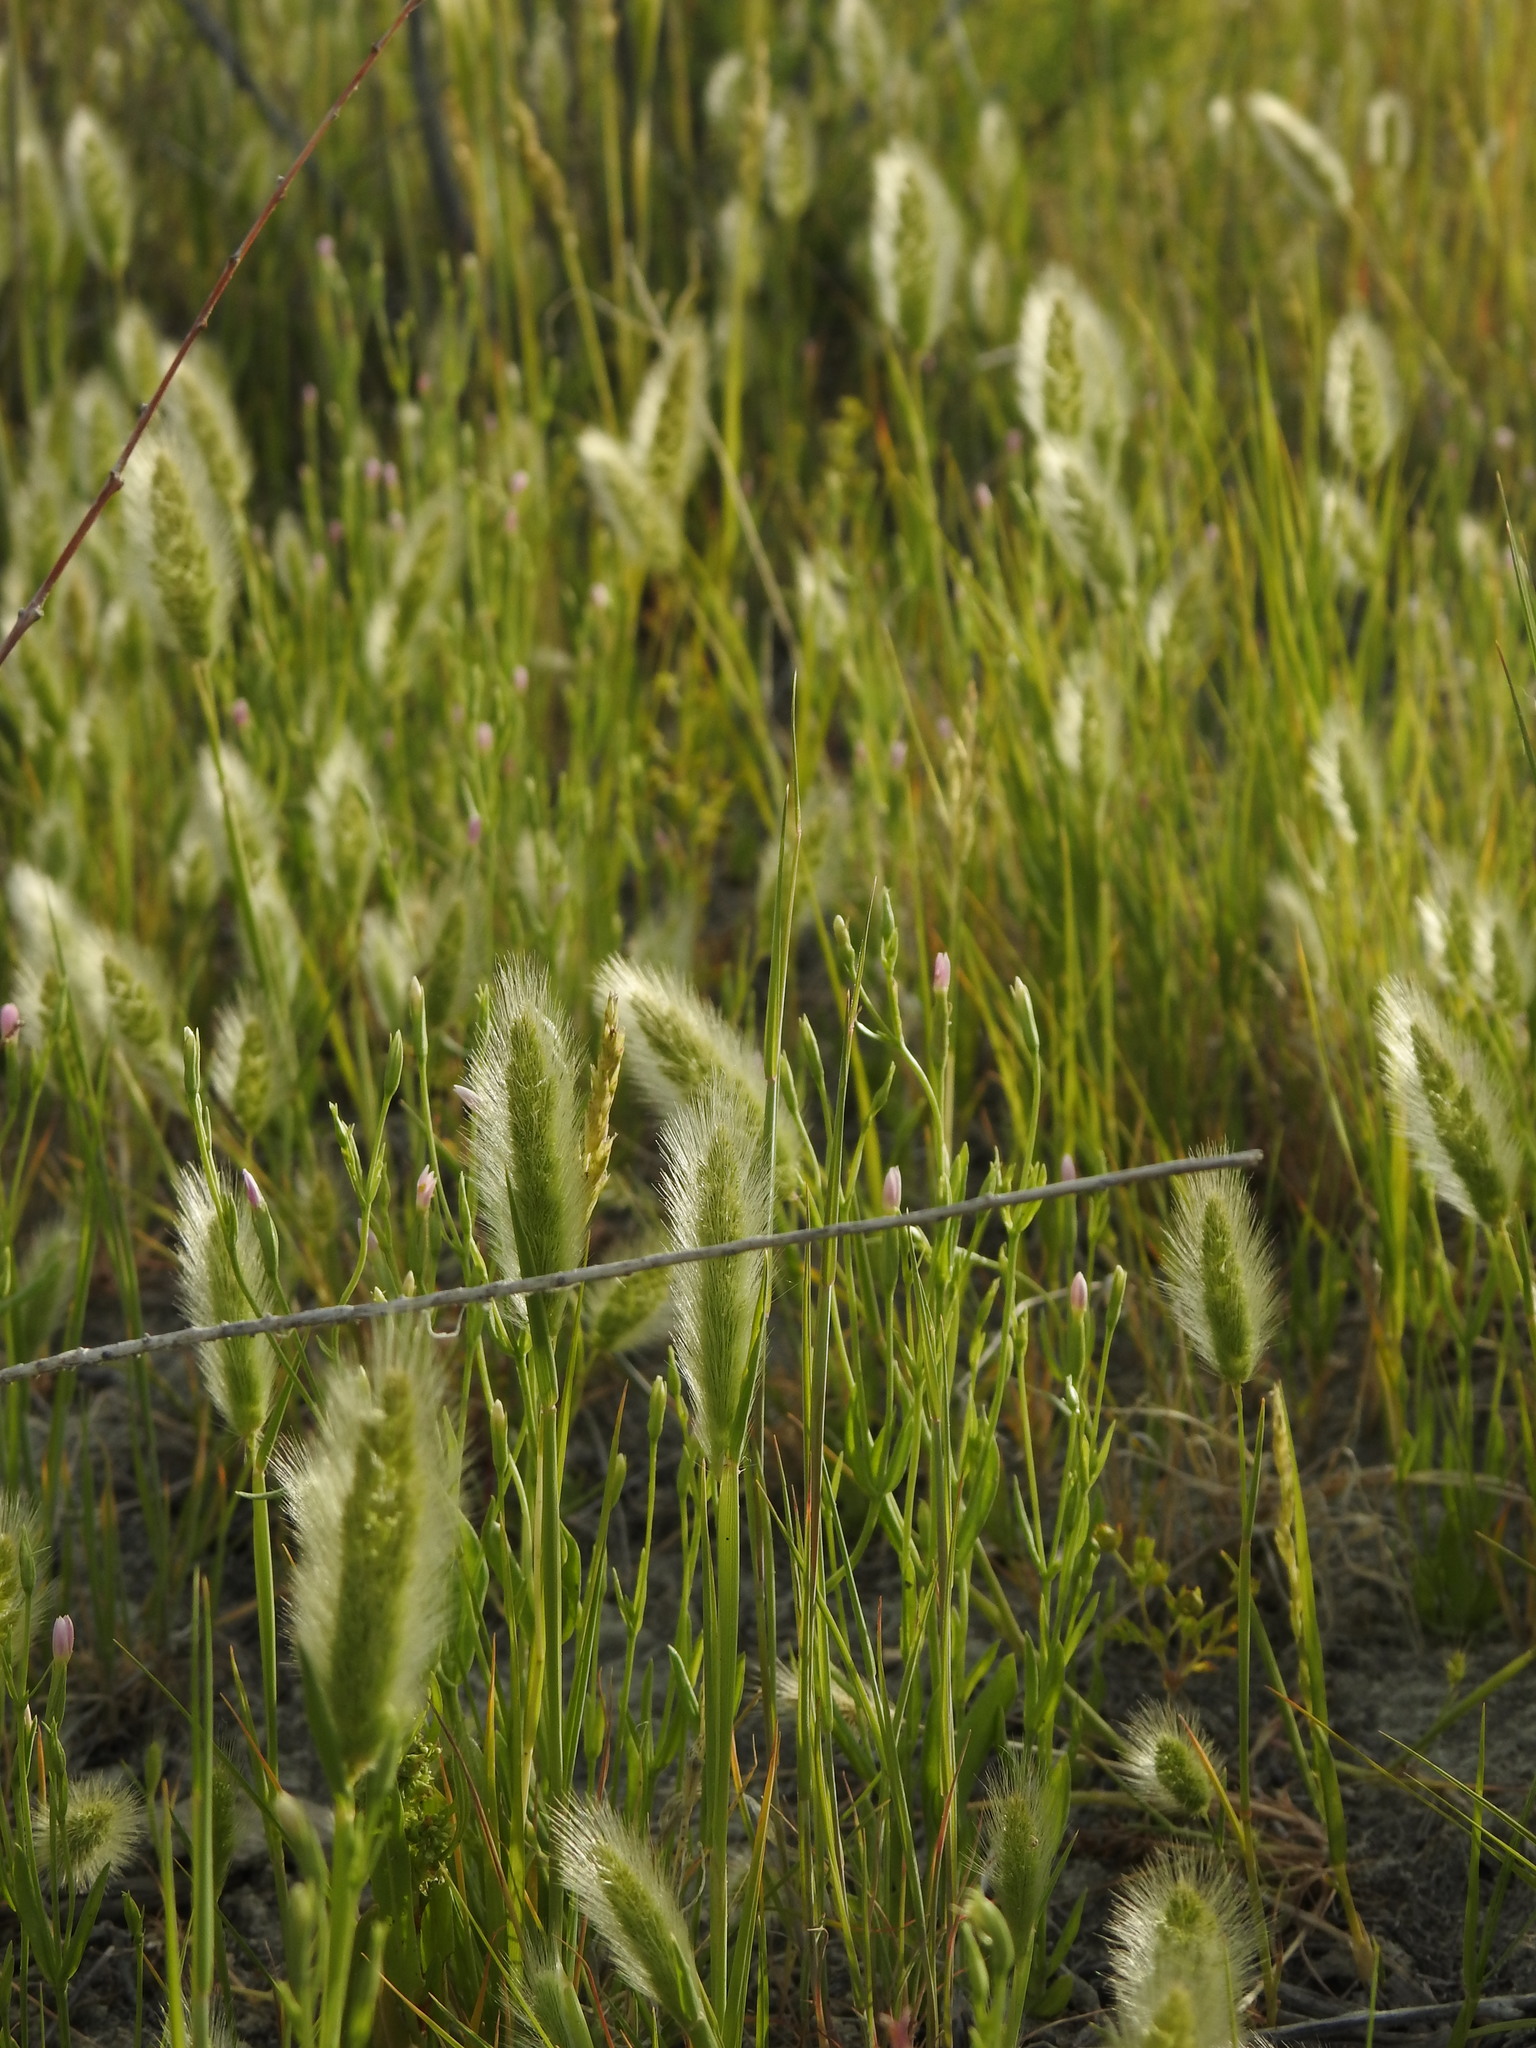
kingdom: Plantae
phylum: Tracheophyta
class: Liliopsida
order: Poales
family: Poaceae
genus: Polypogon
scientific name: Polypogon monspeliensis
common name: Annual rabbitsfoot grass
